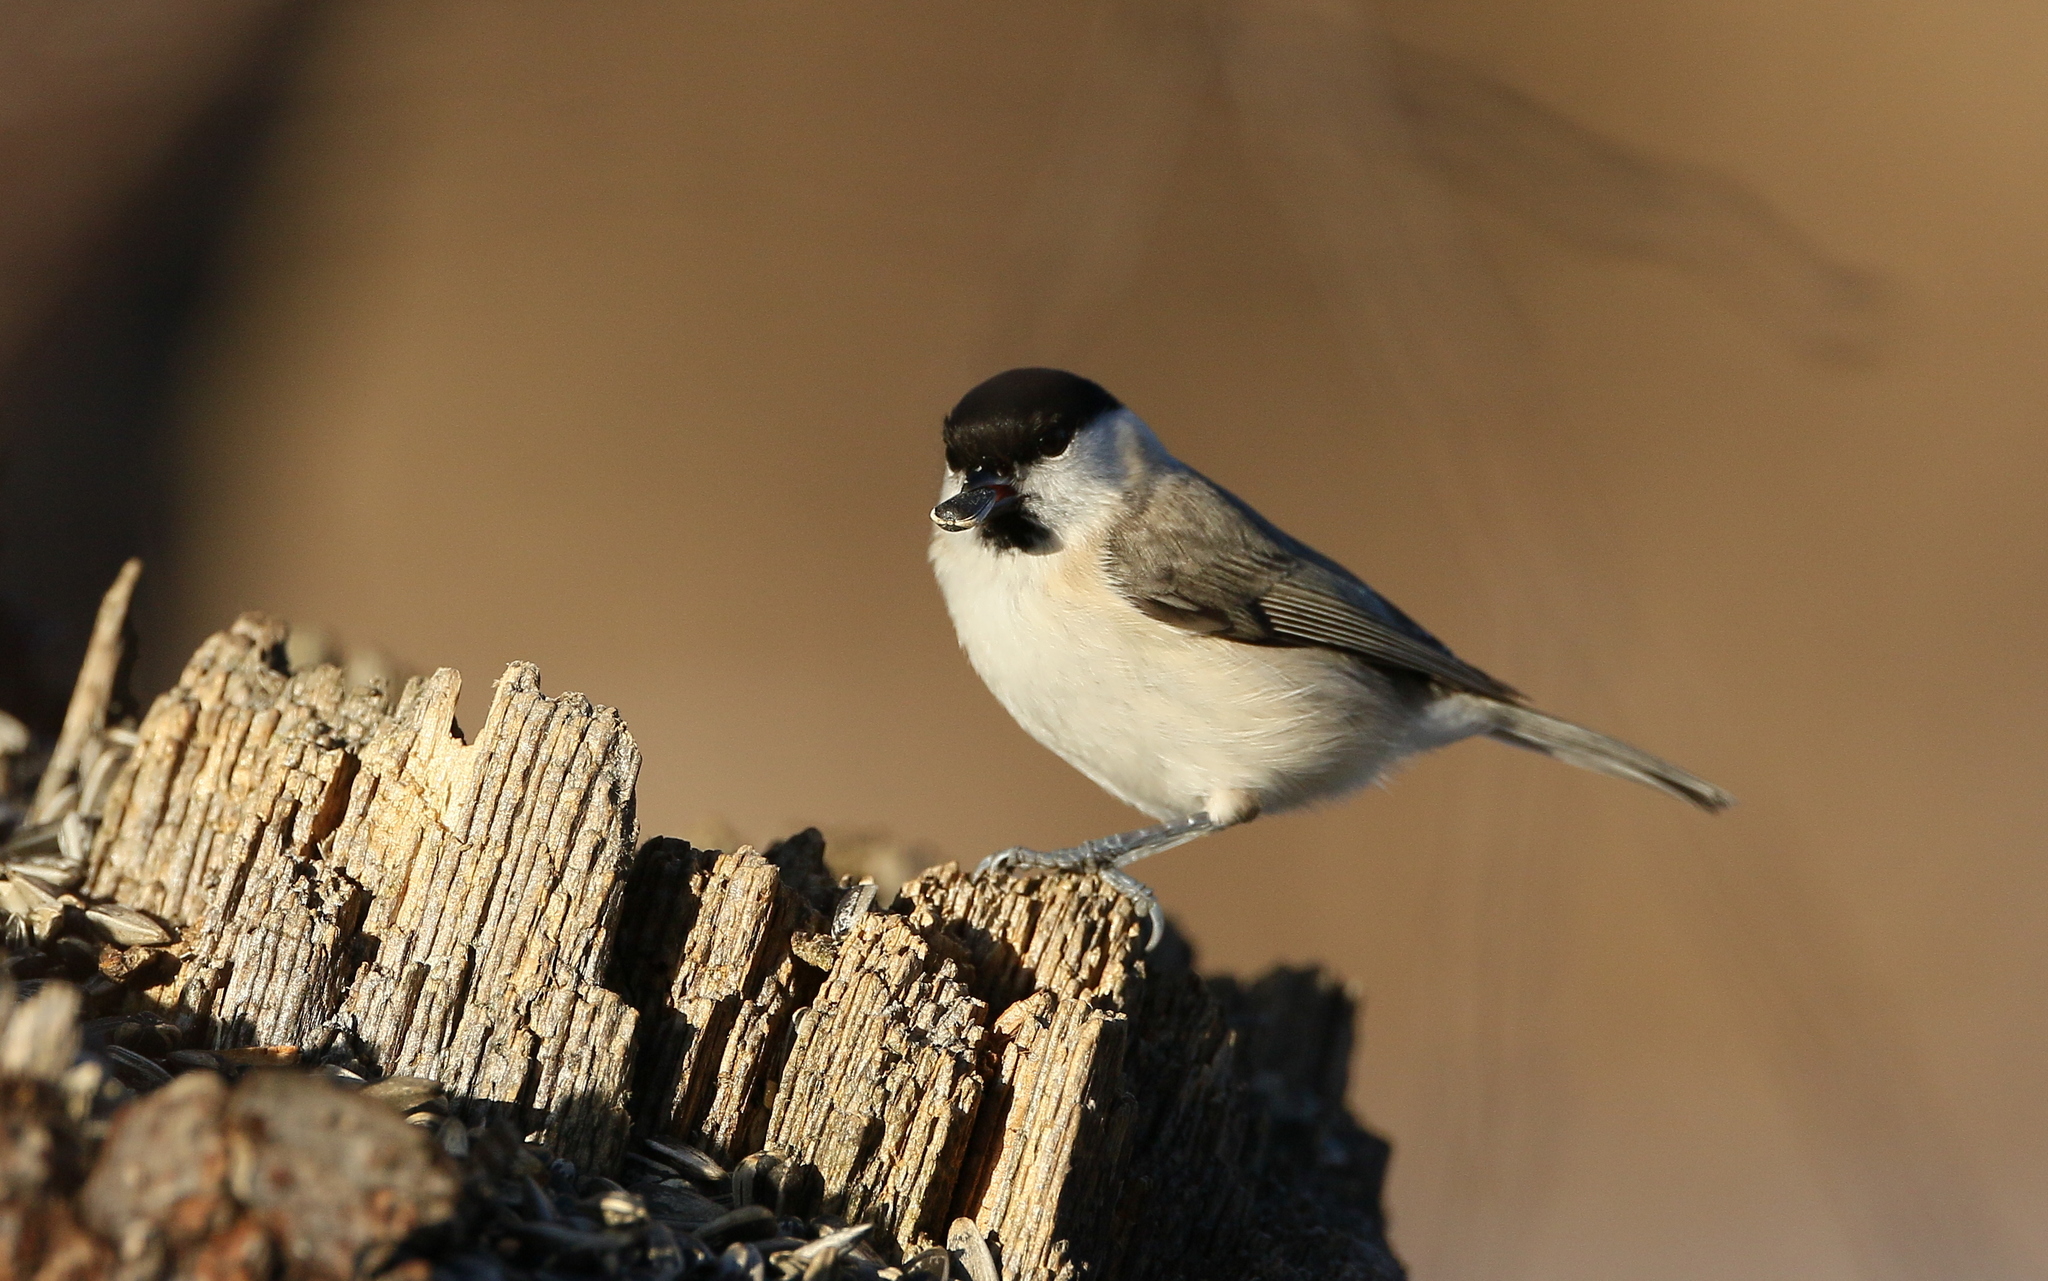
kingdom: Animalia
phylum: Chordata
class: Aves
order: Passeriformes
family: Paridae
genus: Poecile
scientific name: Poecile palustris
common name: Marsh tit
